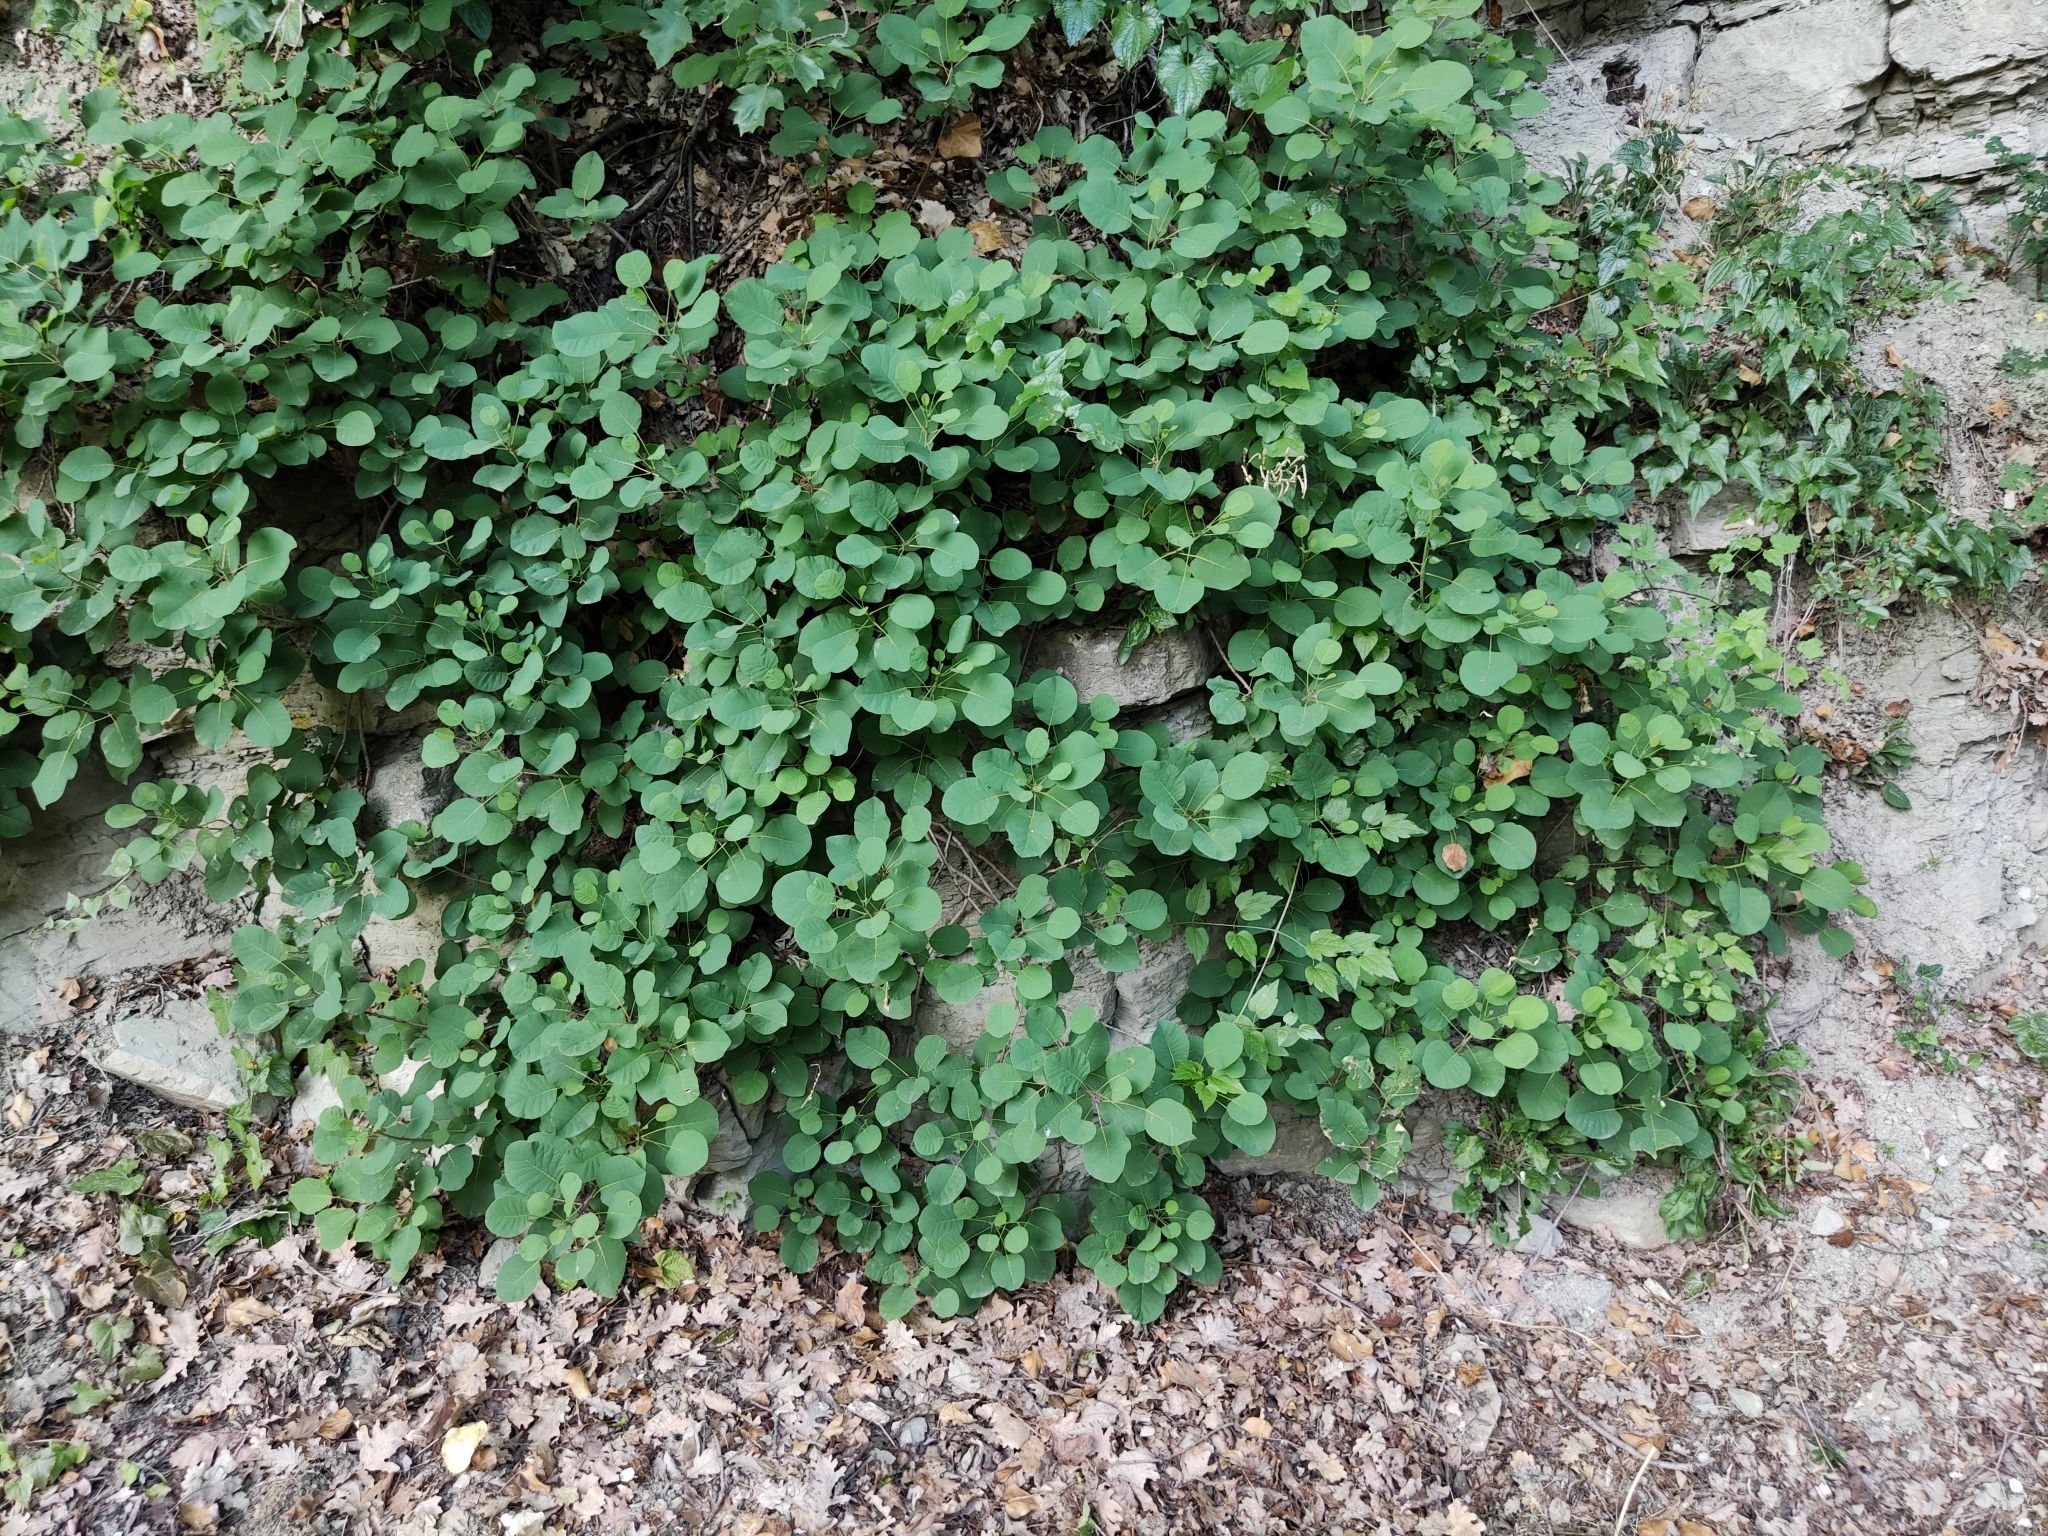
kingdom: Plantae
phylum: Tracheophyta
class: Magnoliopsida
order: Sapindales
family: Anacardiaceae
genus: Cotinus
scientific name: Cotinus coggygria
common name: Smoke-tree
